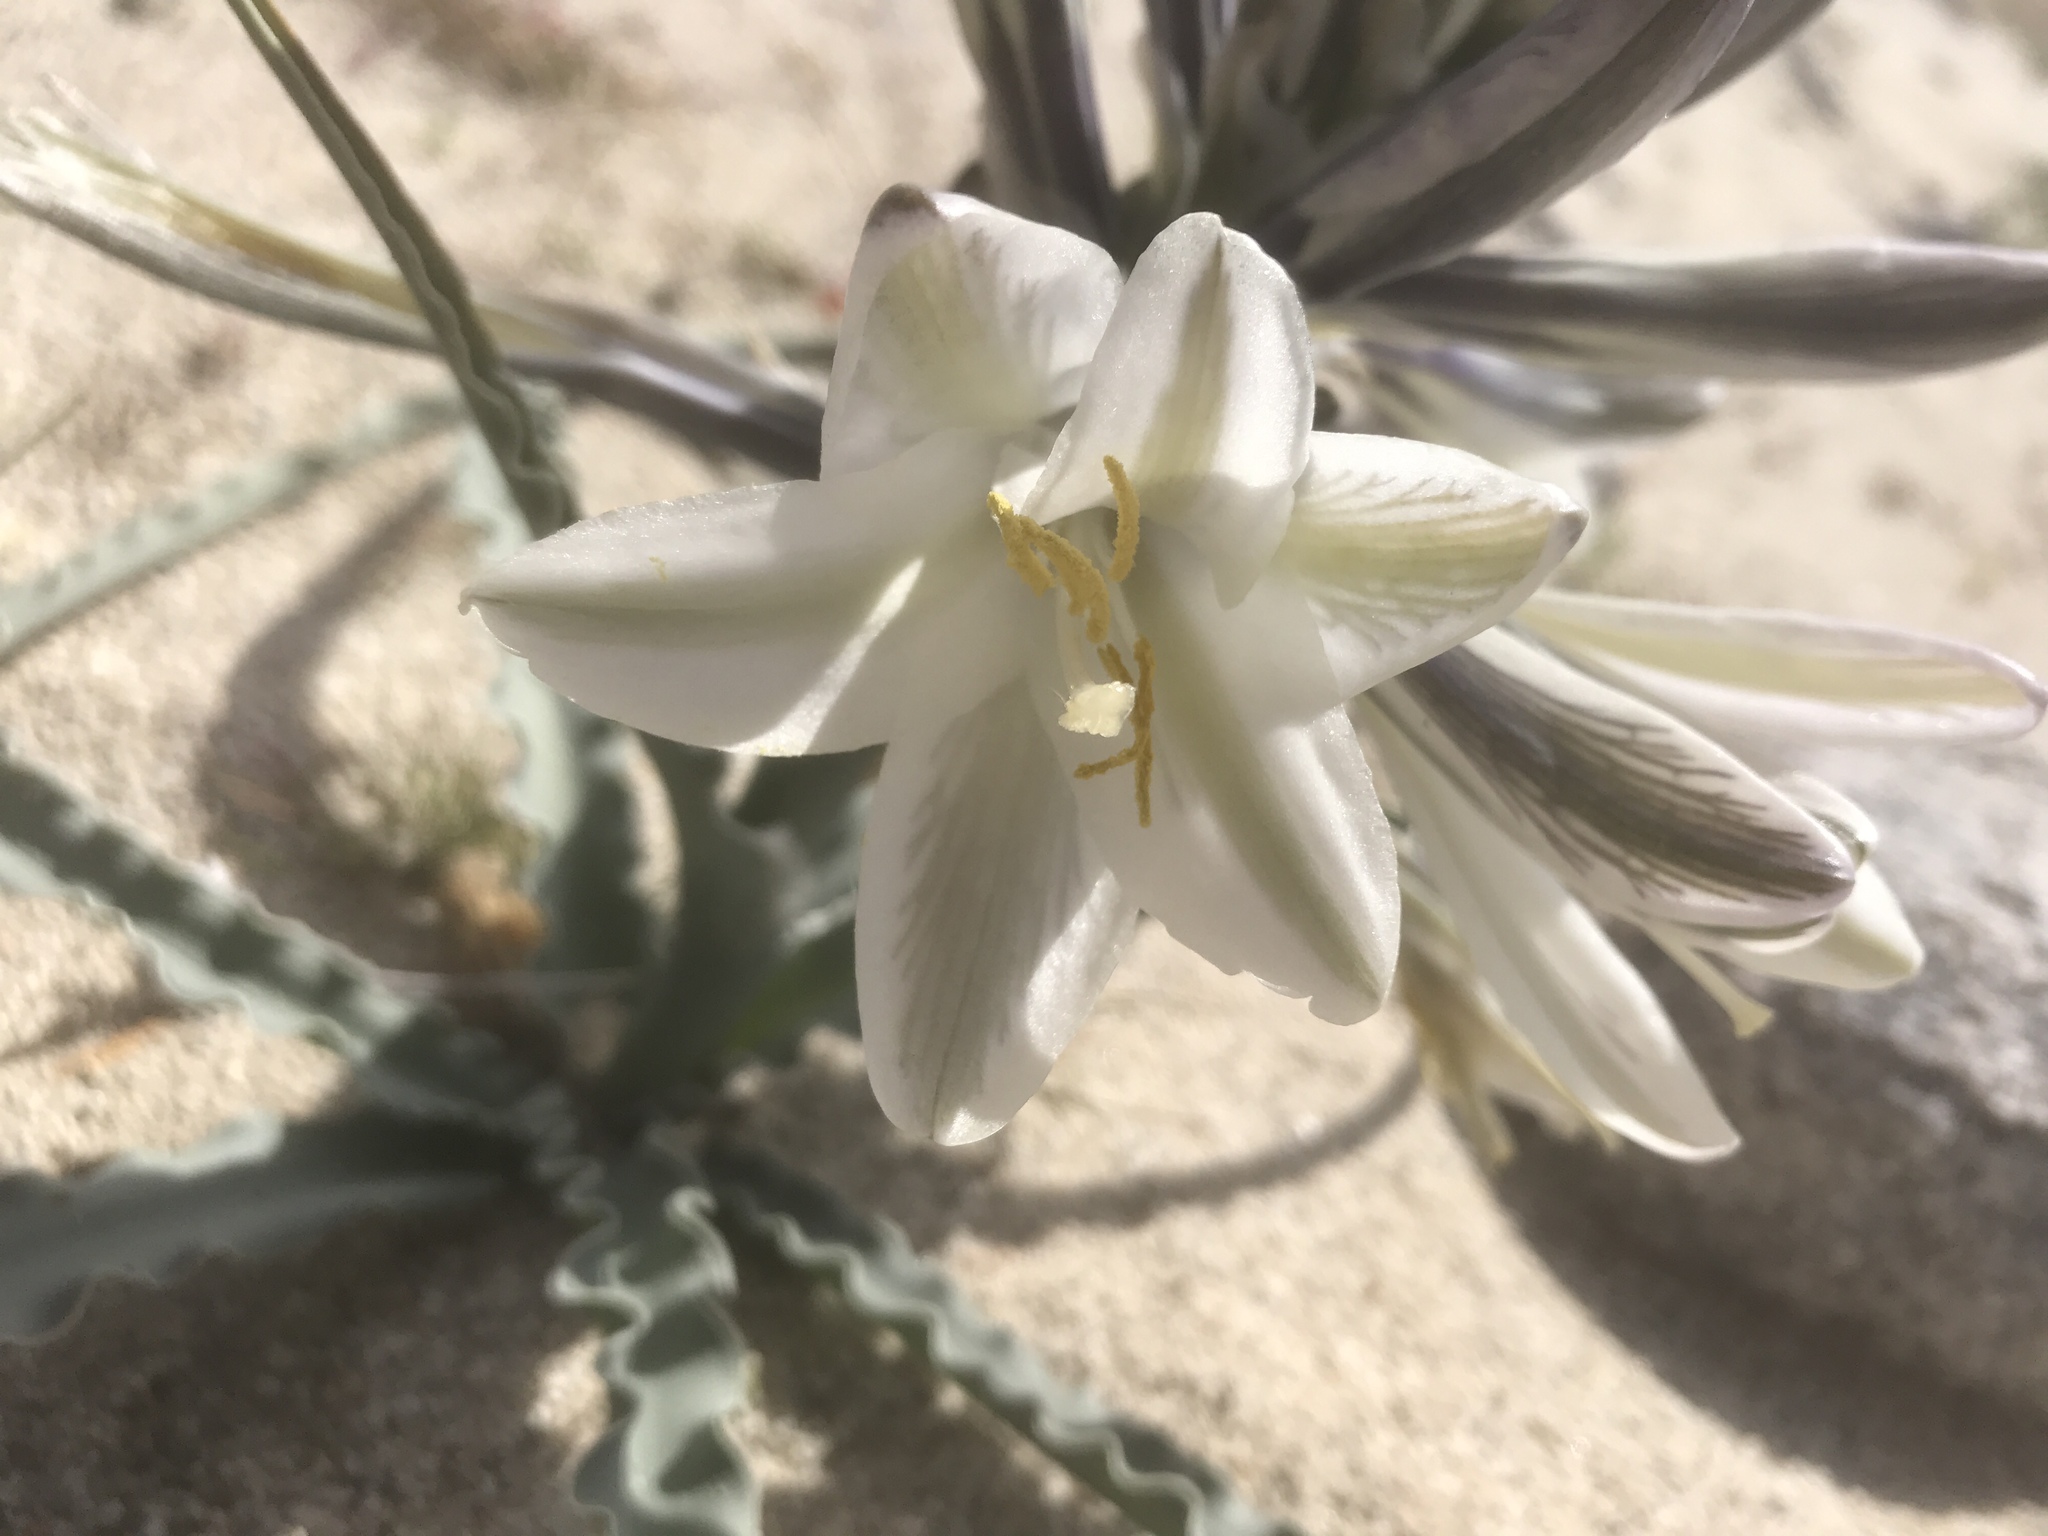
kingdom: Plantae
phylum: Tracheophyta
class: Liliopsida
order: Asparagales
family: Asparagaceae
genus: Hesperocallis
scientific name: Hesperocallis undulata
